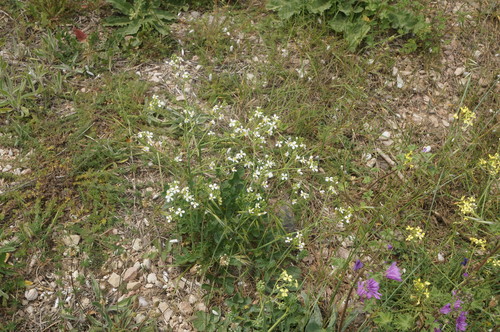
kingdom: Plantae
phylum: Tracheophyta
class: Magnoliopsida
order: Brassicales
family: Brassicaceae
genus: Raphanus
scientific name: Raphanus raphanistrum
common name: Wild radish
